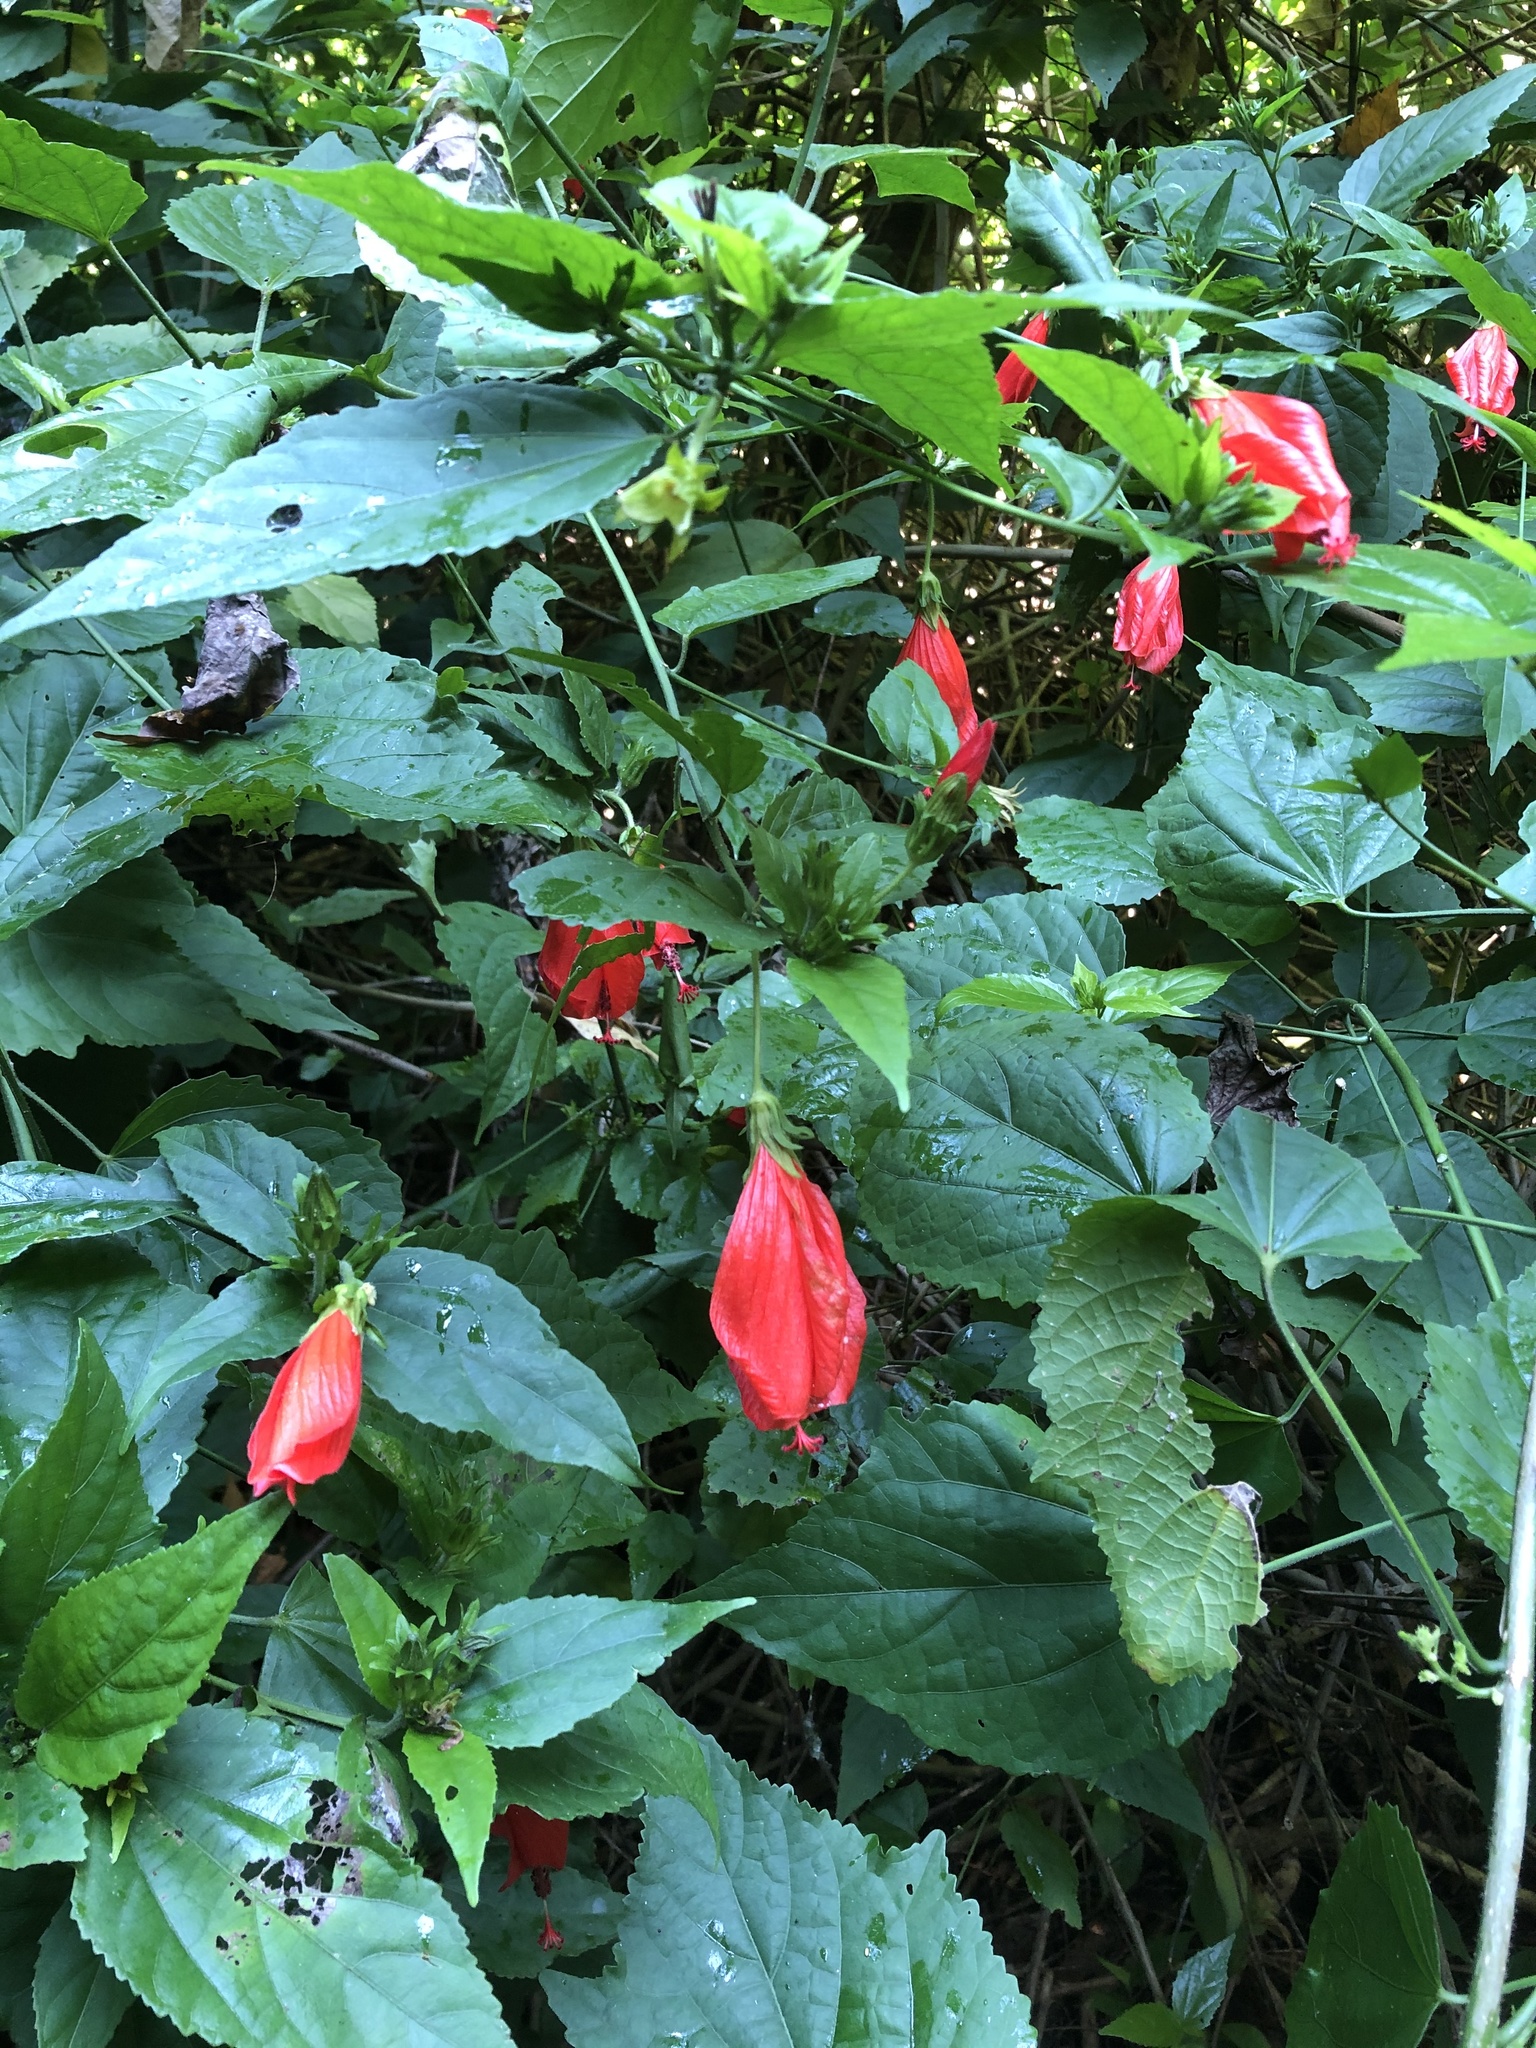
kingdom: Plantae
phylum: Tracheophyta
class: Magnoliopsida
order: Malvales
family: Malvaceae
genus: Malvaviscus
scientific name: Malvaviscus penduliflorus
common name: Mazapan
